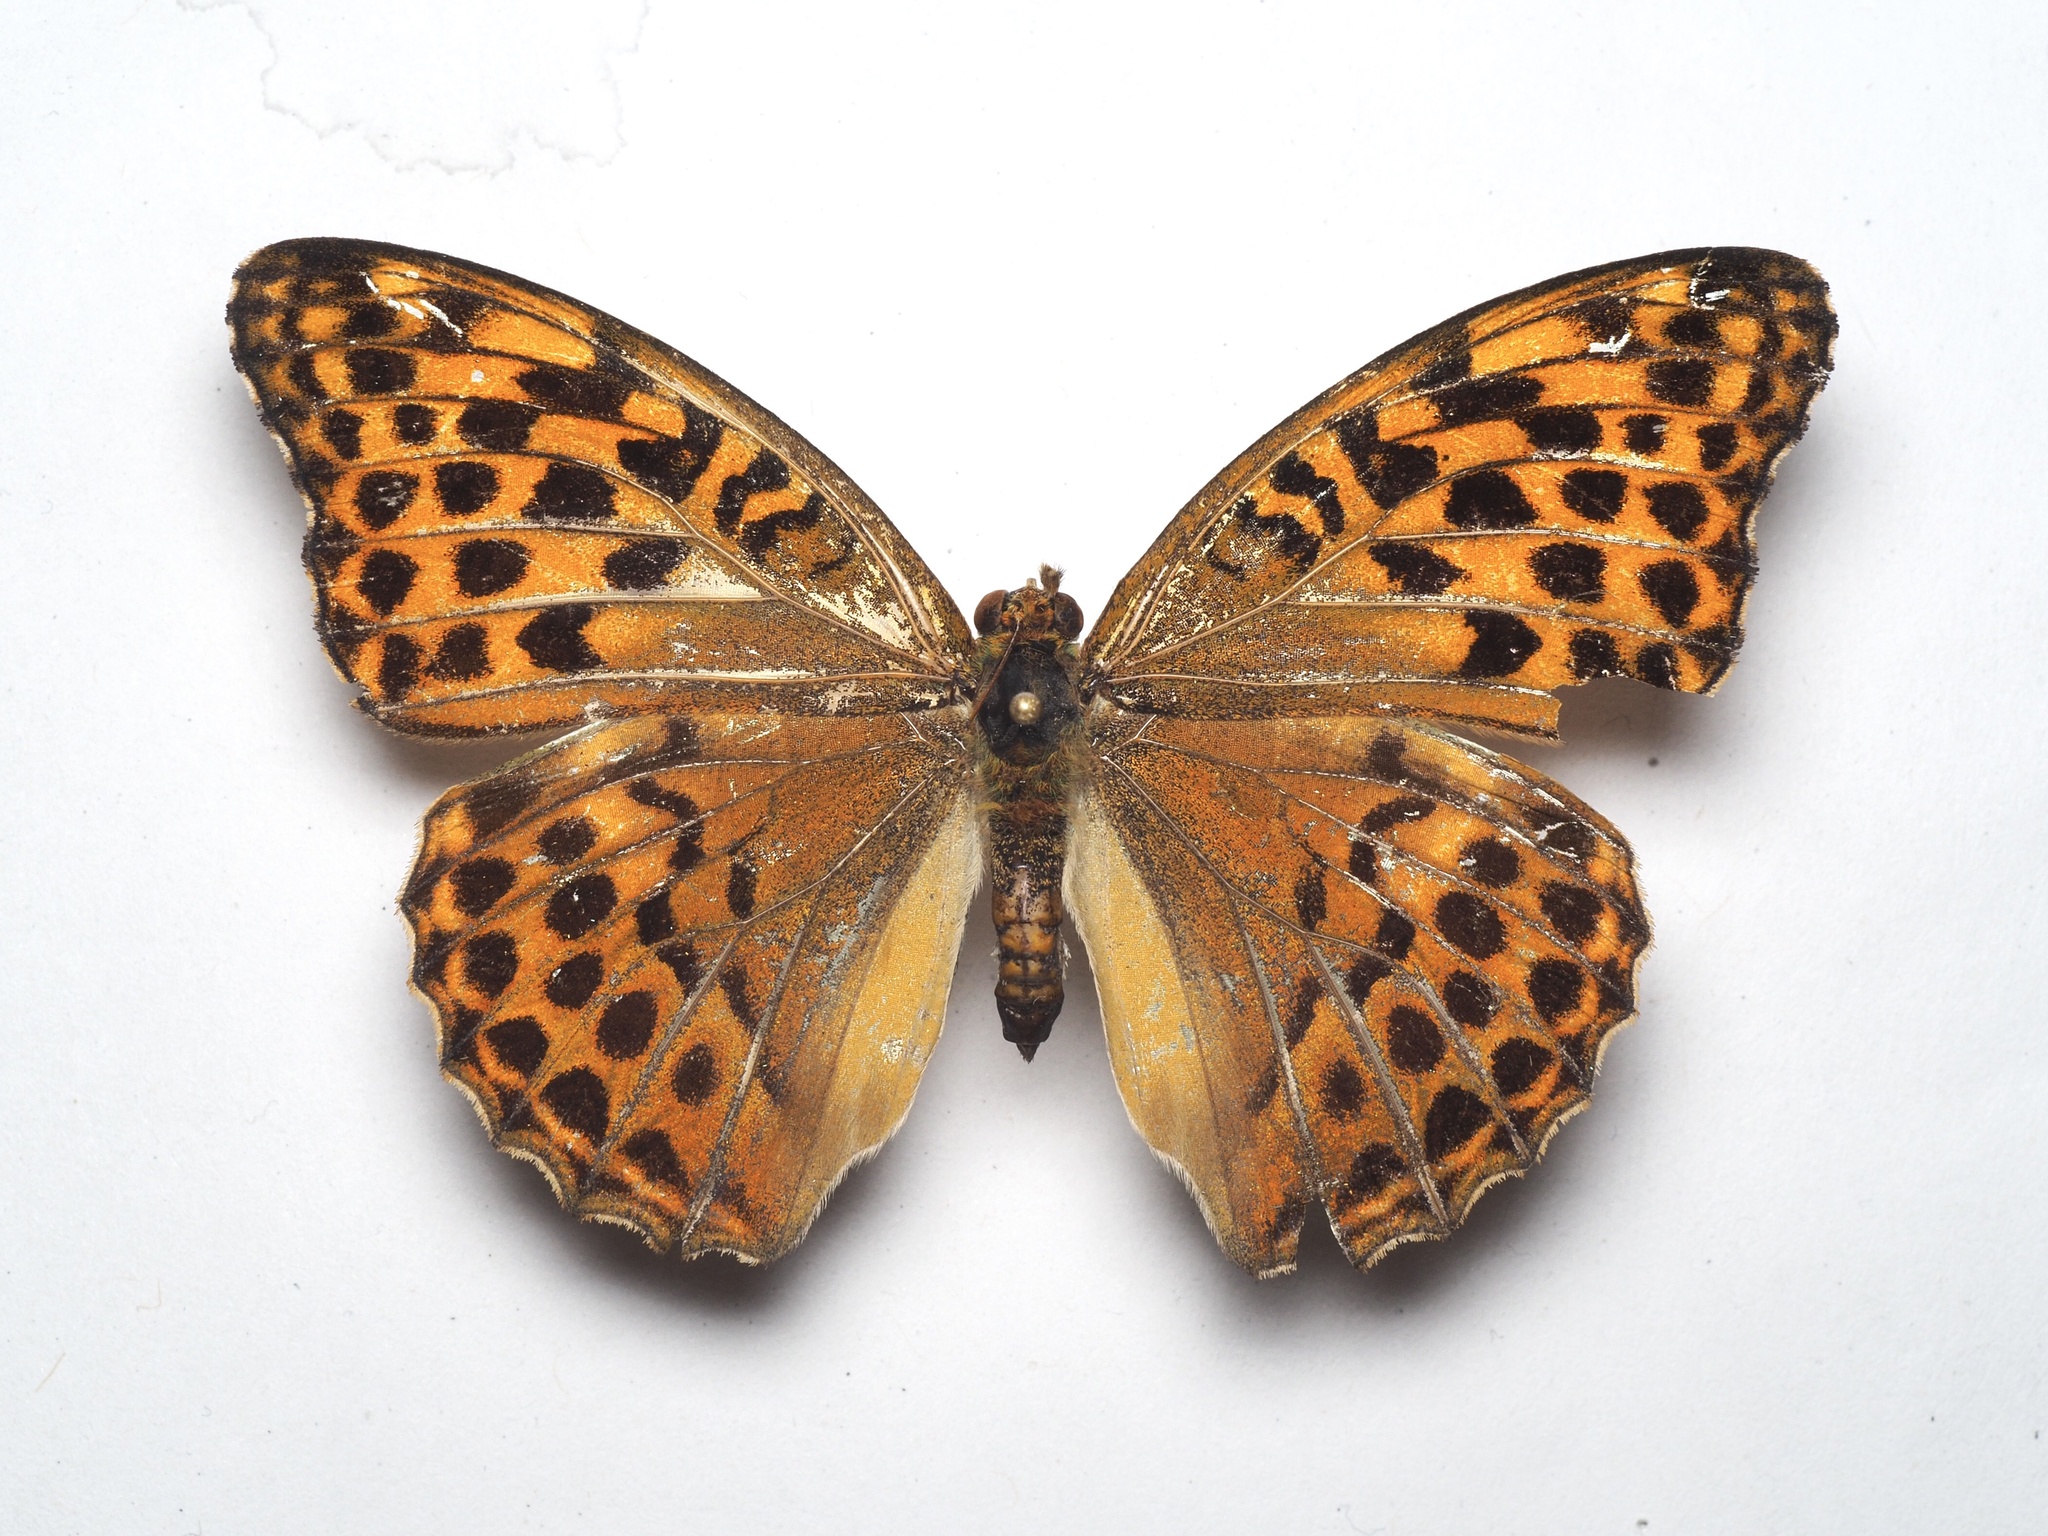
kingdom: Animalia
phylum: Arthropoda
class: Insecta
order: Lepidoptera
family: Nymphalidae
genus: Argynnis
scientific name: Argynnis paphia
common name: Silver-washed fritillary
